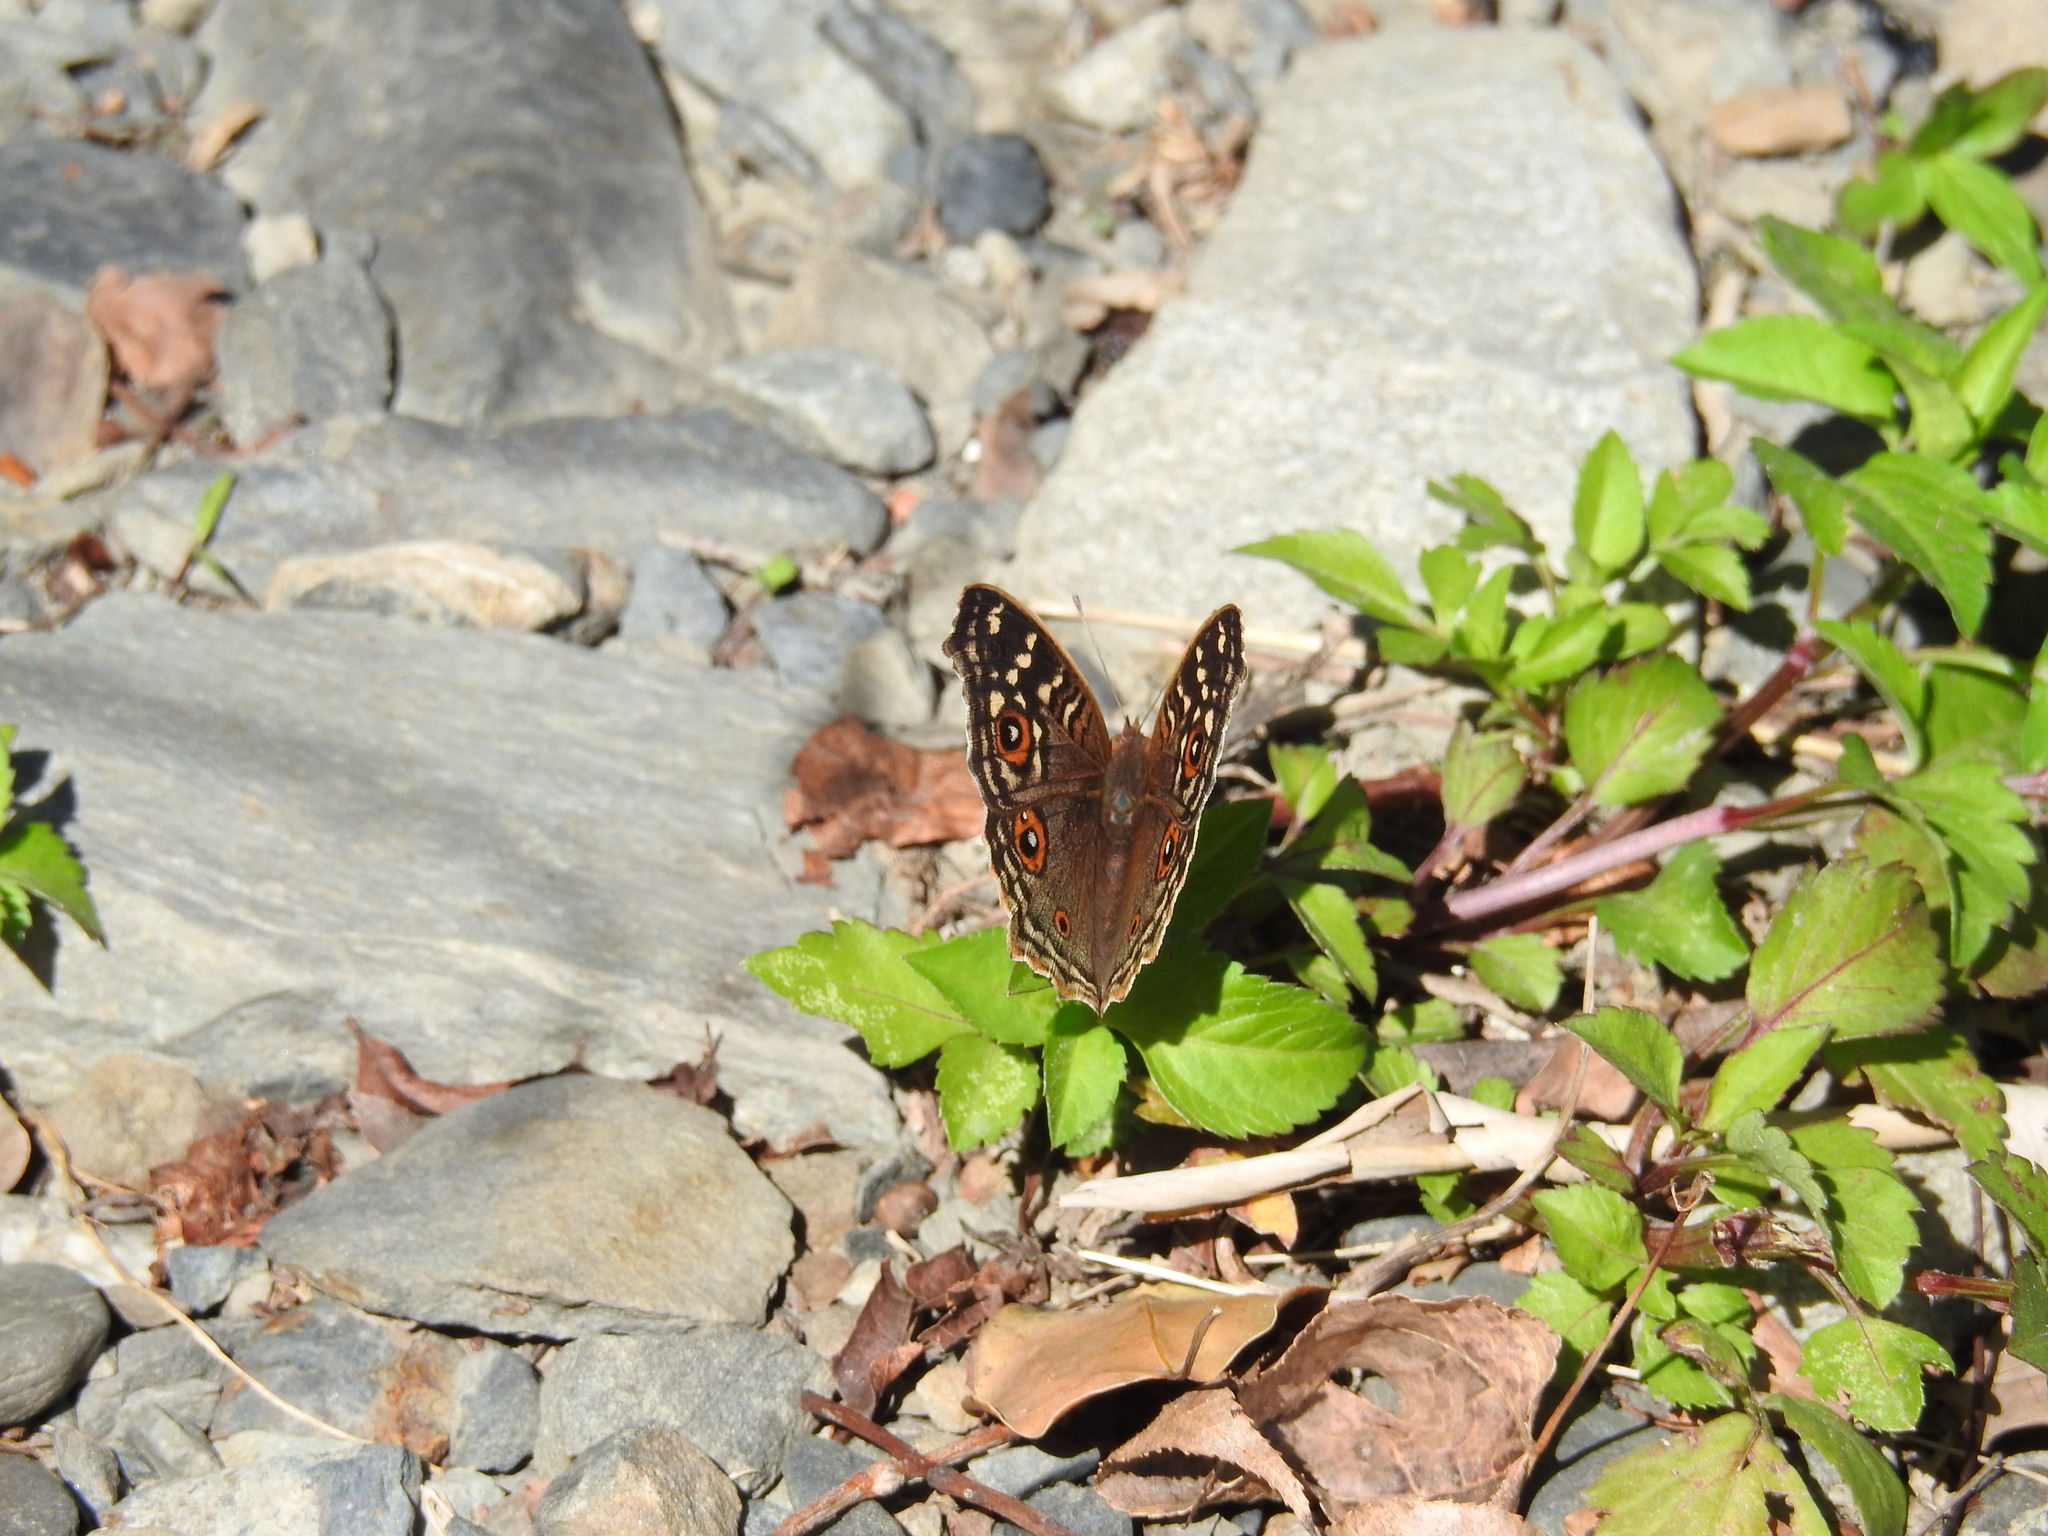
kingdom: Animalia
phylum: Arthropoda
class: Insecta
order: Lepidoptera
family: Nymphalidae
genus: Junonia
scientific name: Junonia lemonias
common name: Lemon pansy
